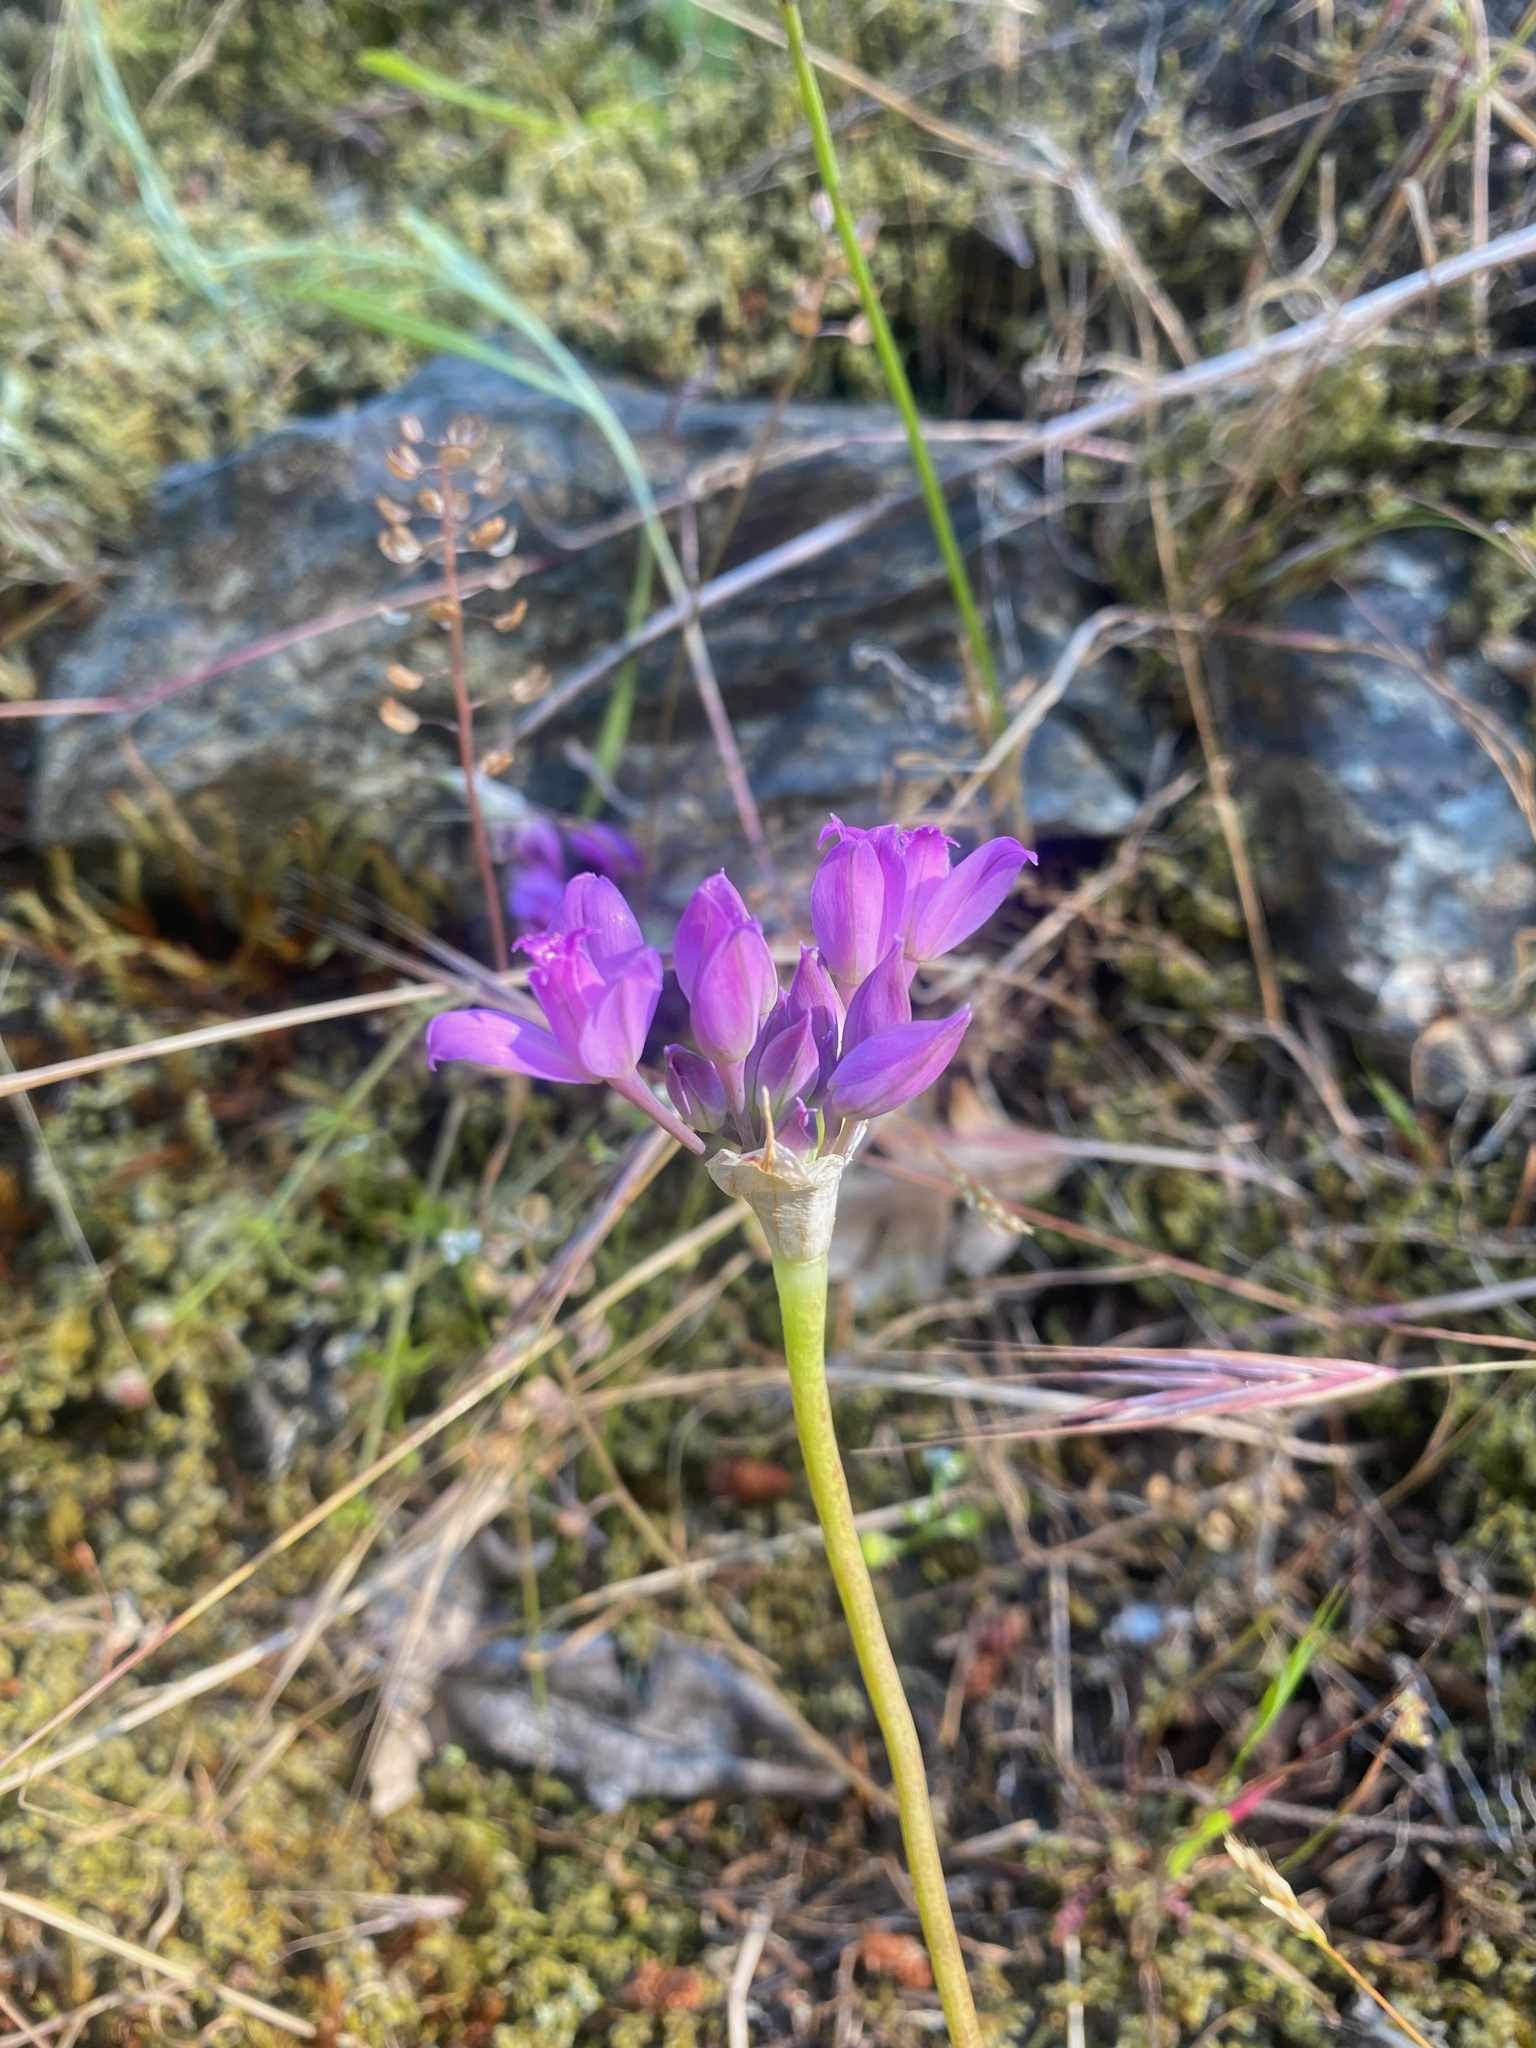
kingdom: Plantae
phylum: Tracheophyta
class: Liliopsida
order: Asparagales
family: Amaryllidaceae
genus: Allium
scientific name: Allium acuminatum
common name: Hooker's onion
